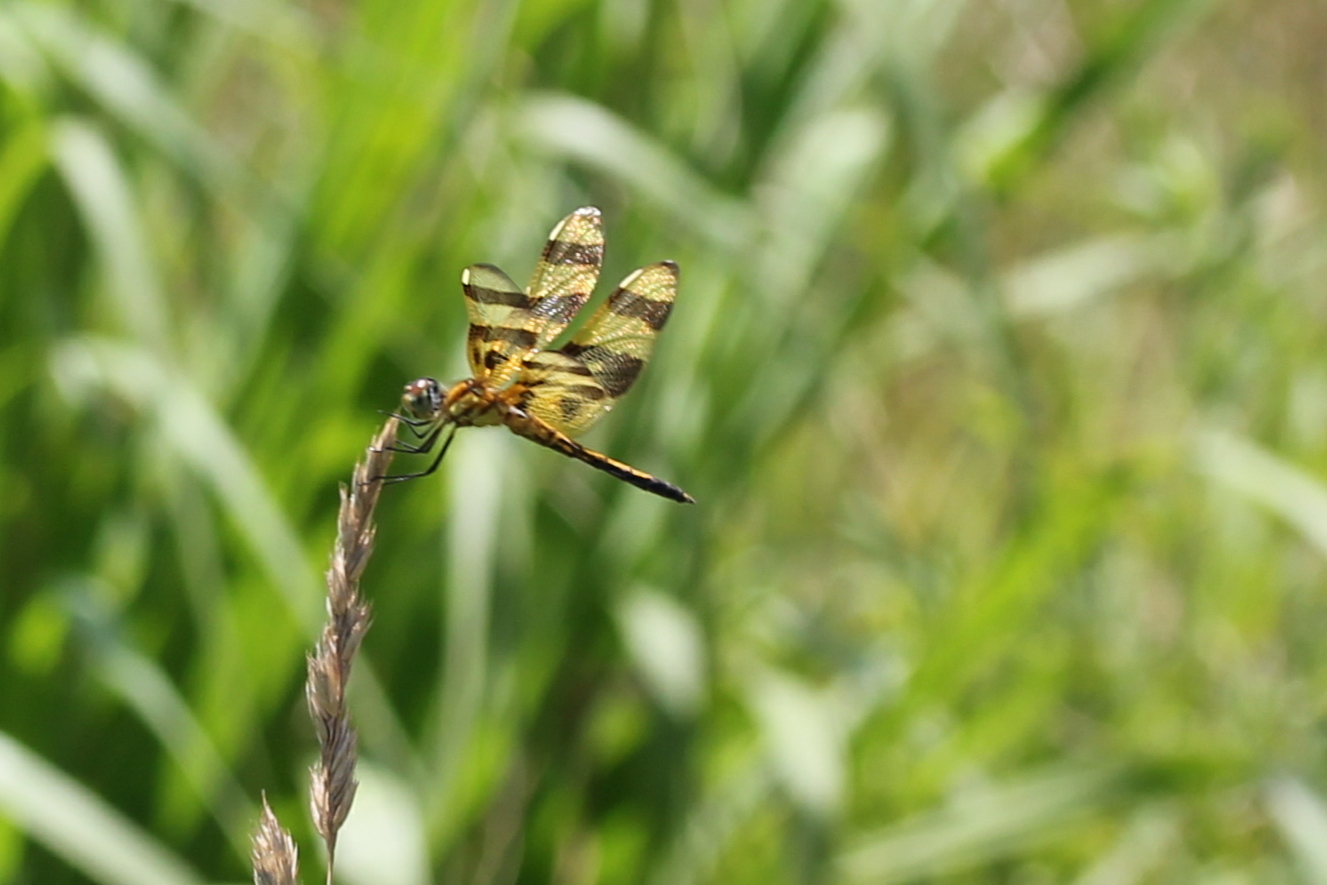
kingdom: Animalia
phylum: Arthropoda
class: Insecta
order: Odonata
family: Libellulidae
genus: Celithemis
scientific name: Celithemis eponina
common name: Halloween pennant
